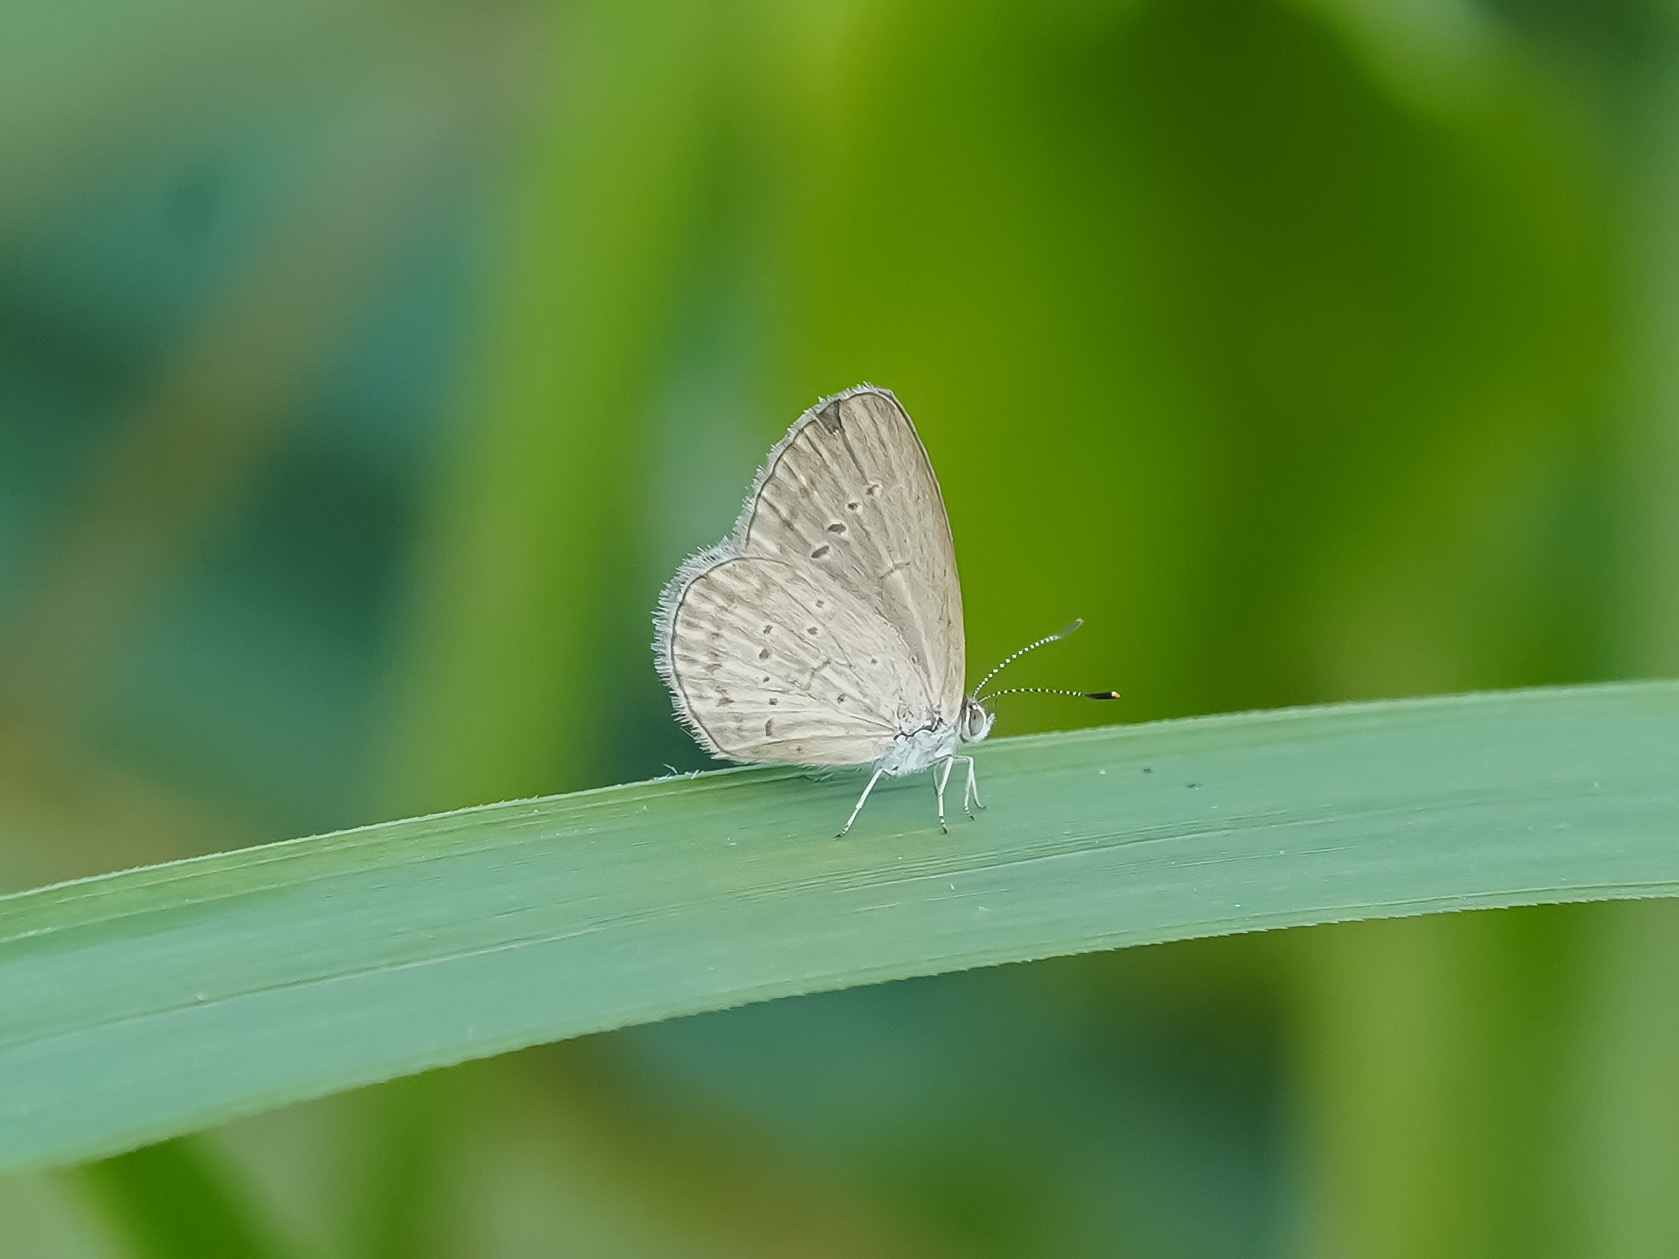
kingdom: Animalia
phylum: Arthropoda
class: Insecta
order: Lepidoptera
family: Lycaenidae
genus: Zizina
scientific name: Zizina otis
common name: Lesser grass blue
